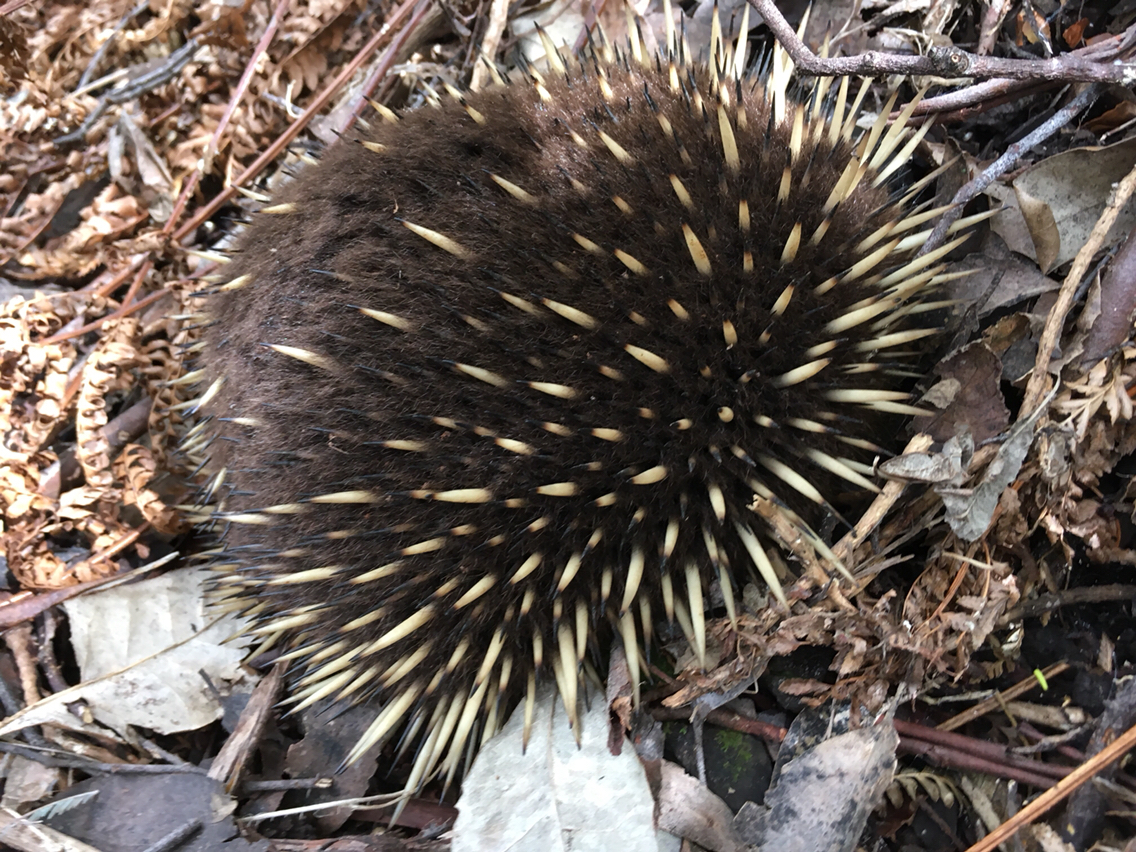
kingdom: Animalia
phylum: Chordata
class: Mammalia
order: Monotremata
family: Tachyglossidae
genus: Tachyglossus
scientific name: Tachyglossus aculeatus
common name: Short-beaked echidna
